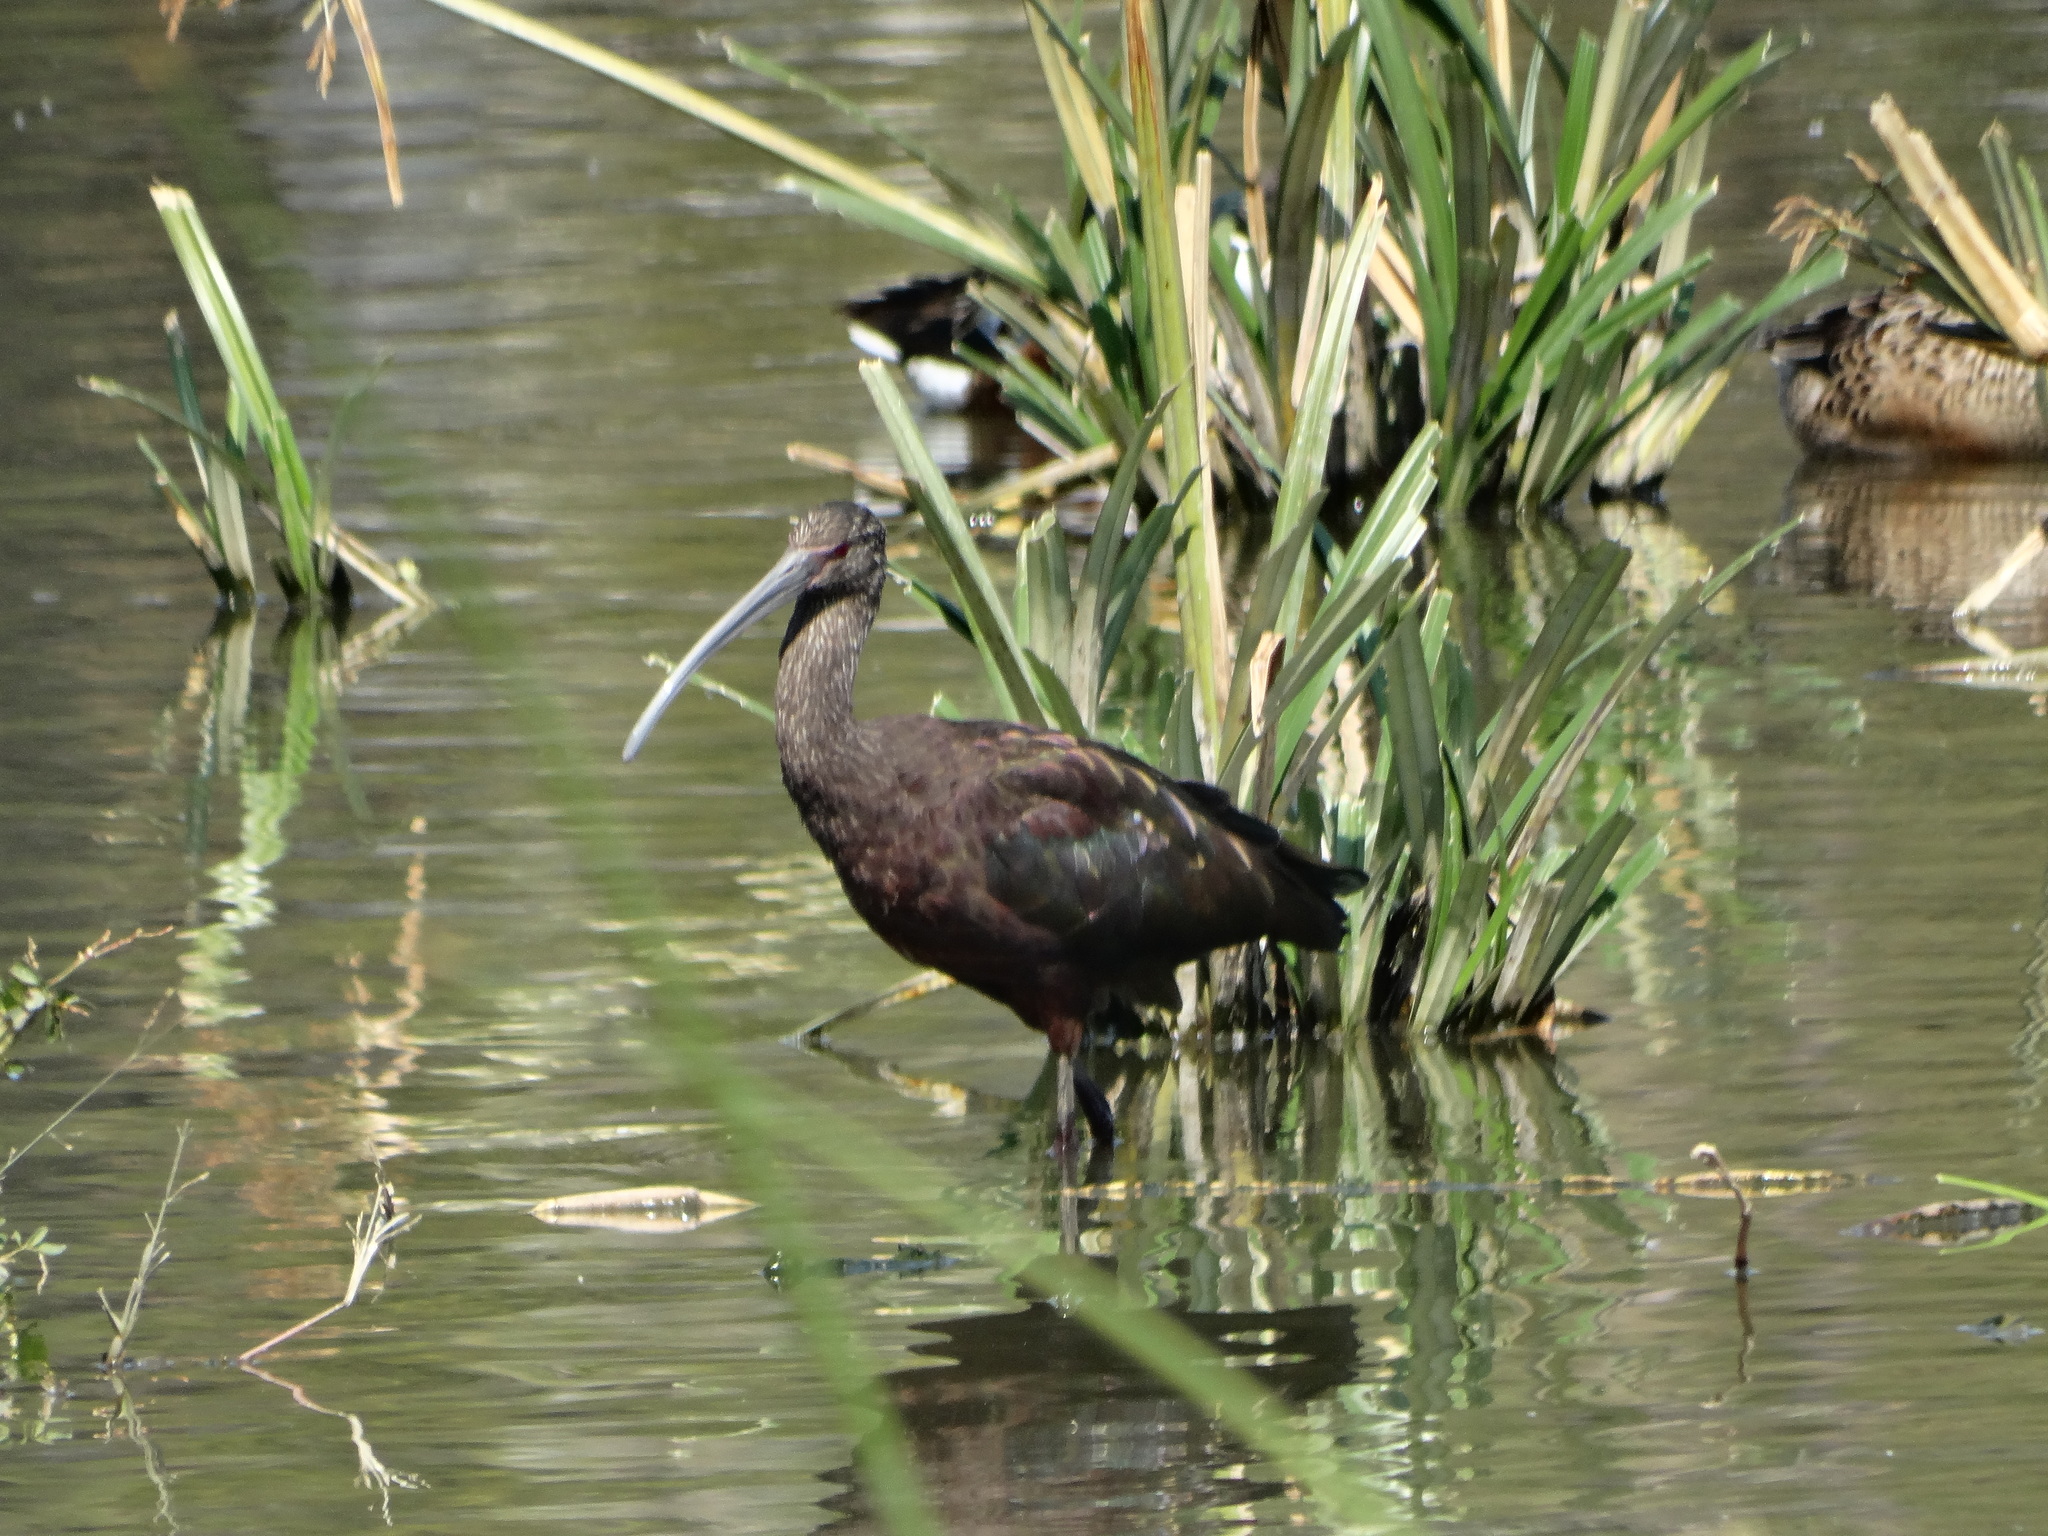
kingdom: Animalia
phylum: Chordata
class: Aves
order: Pelecaniformes
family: Threskiornithidae
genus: Plegadis
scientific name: Plegadis chihi
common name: White-faced ibis
